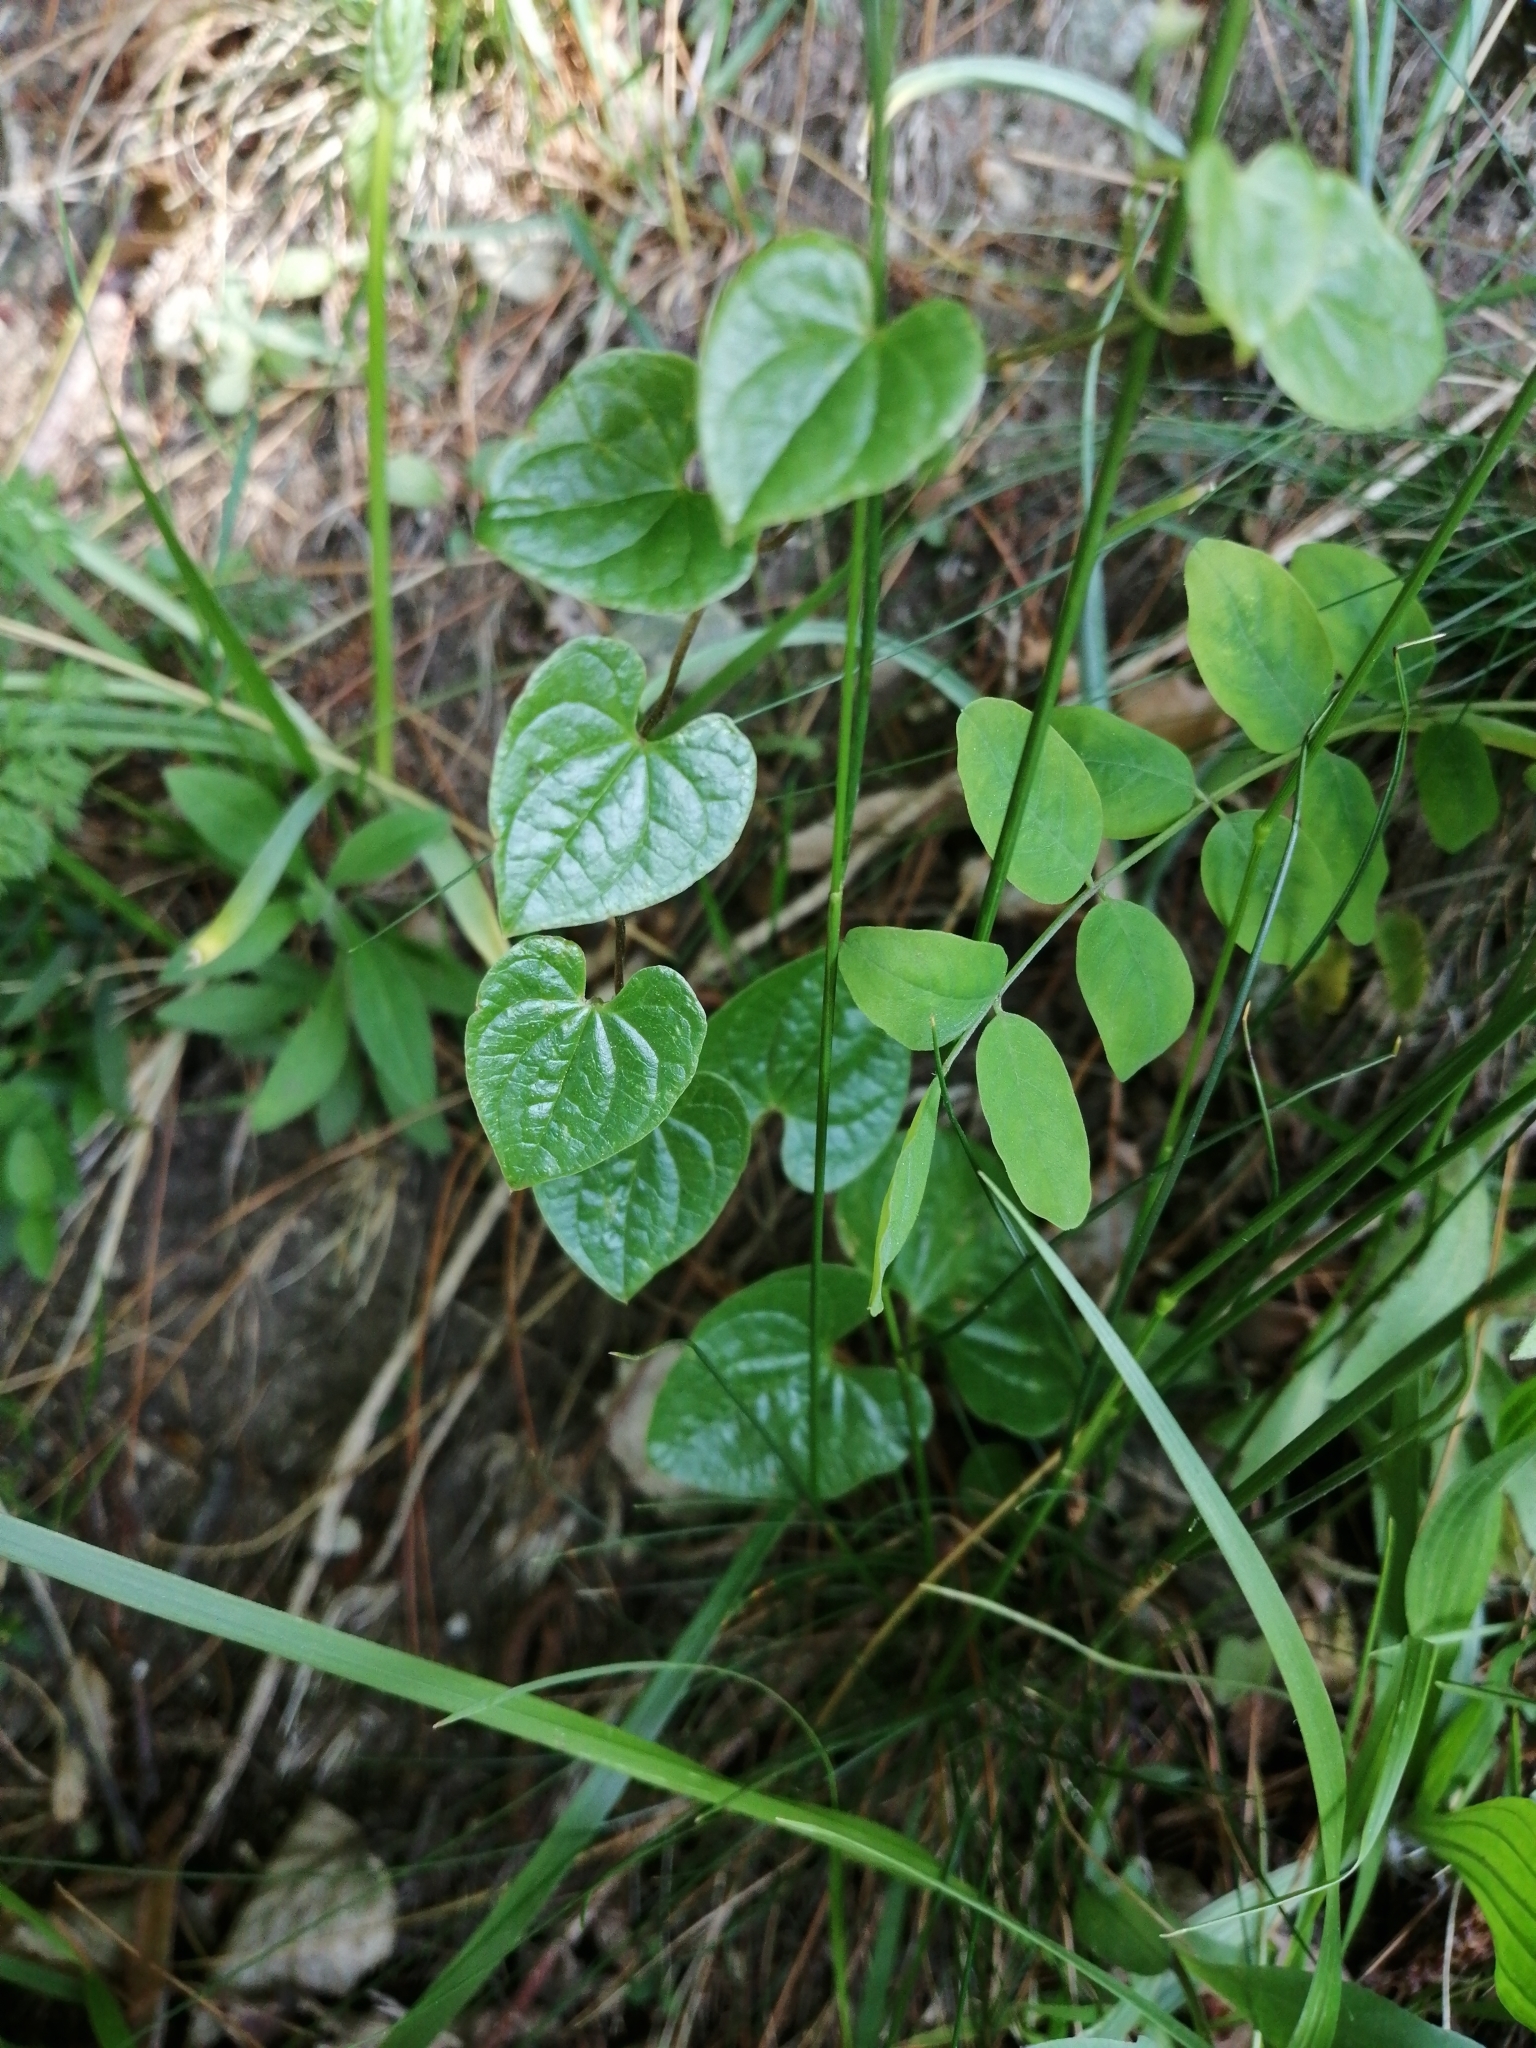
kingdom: Plantae
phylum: Tracheophyta
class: Liliopsida
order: Dioscoreales
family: Dioscoreaceae
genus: Dioscorea
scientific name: Dioscorea communis
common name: Black-bindweed
